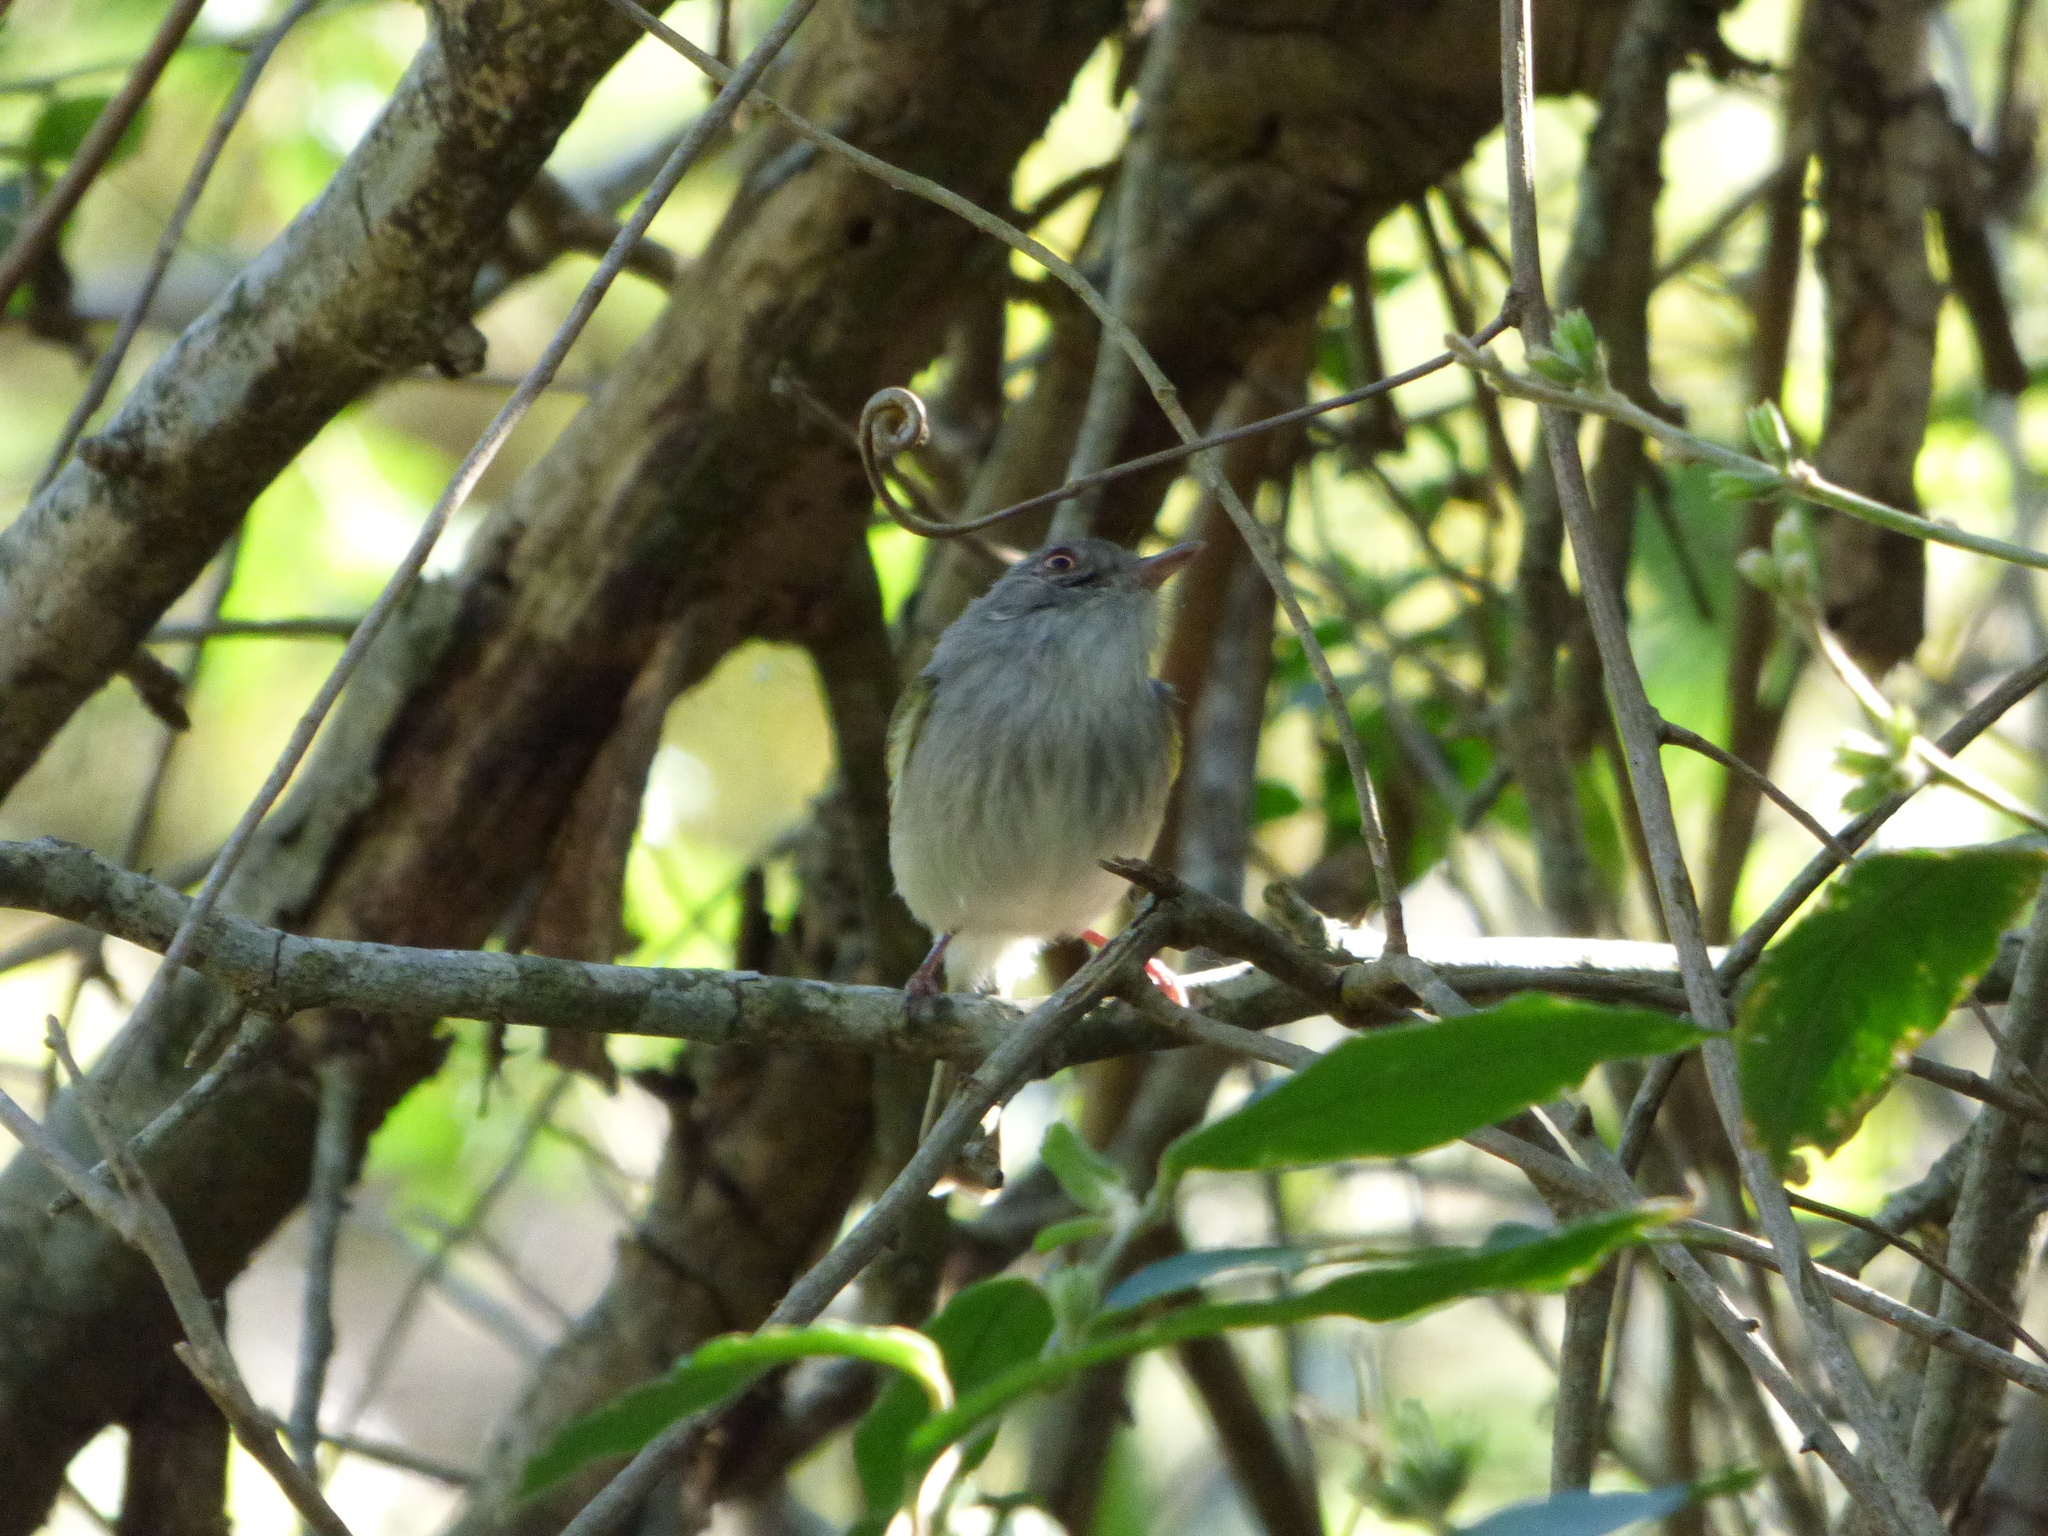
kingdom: Animalia
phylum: Chordata
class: Aves
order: Passeriformes
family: Tyrannidae
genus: Hemitriccus
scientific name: Hemitriccus margaritaceiventer
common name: Pearly-vented tody-tyrant
